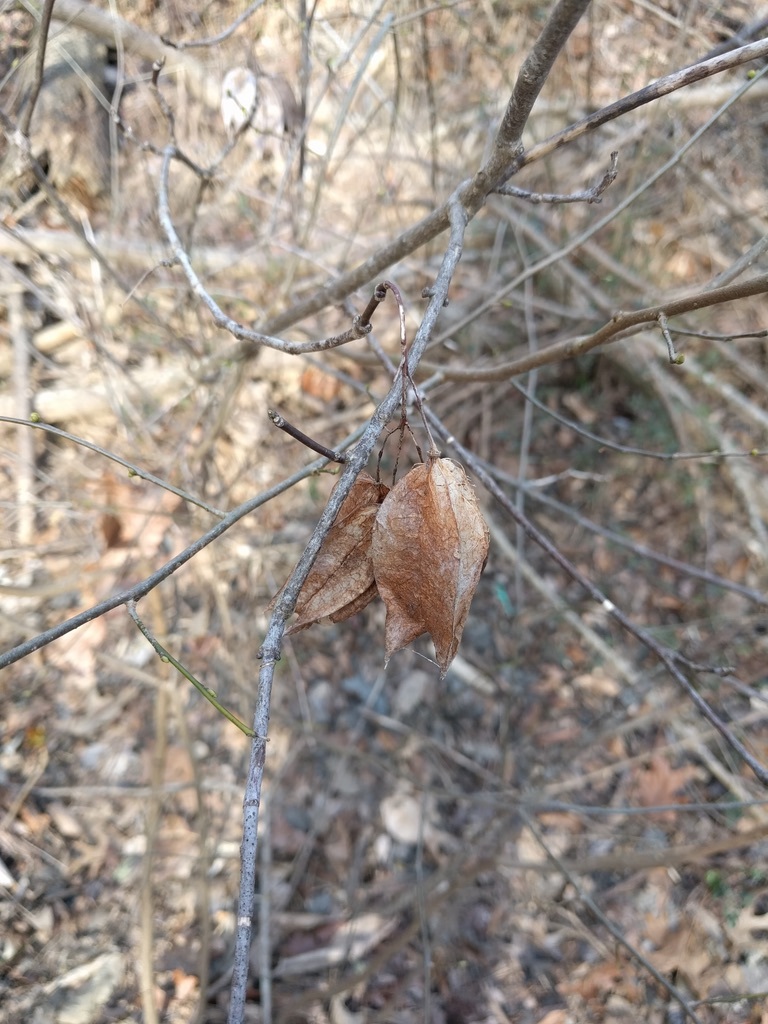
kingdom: Plantae
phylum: Tracheophyta
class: Magnoliopsida
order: Crossosomatales
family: Staphyleaceae
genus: Staphylea
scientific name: Staphylea trifolia
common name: American bladdernut
